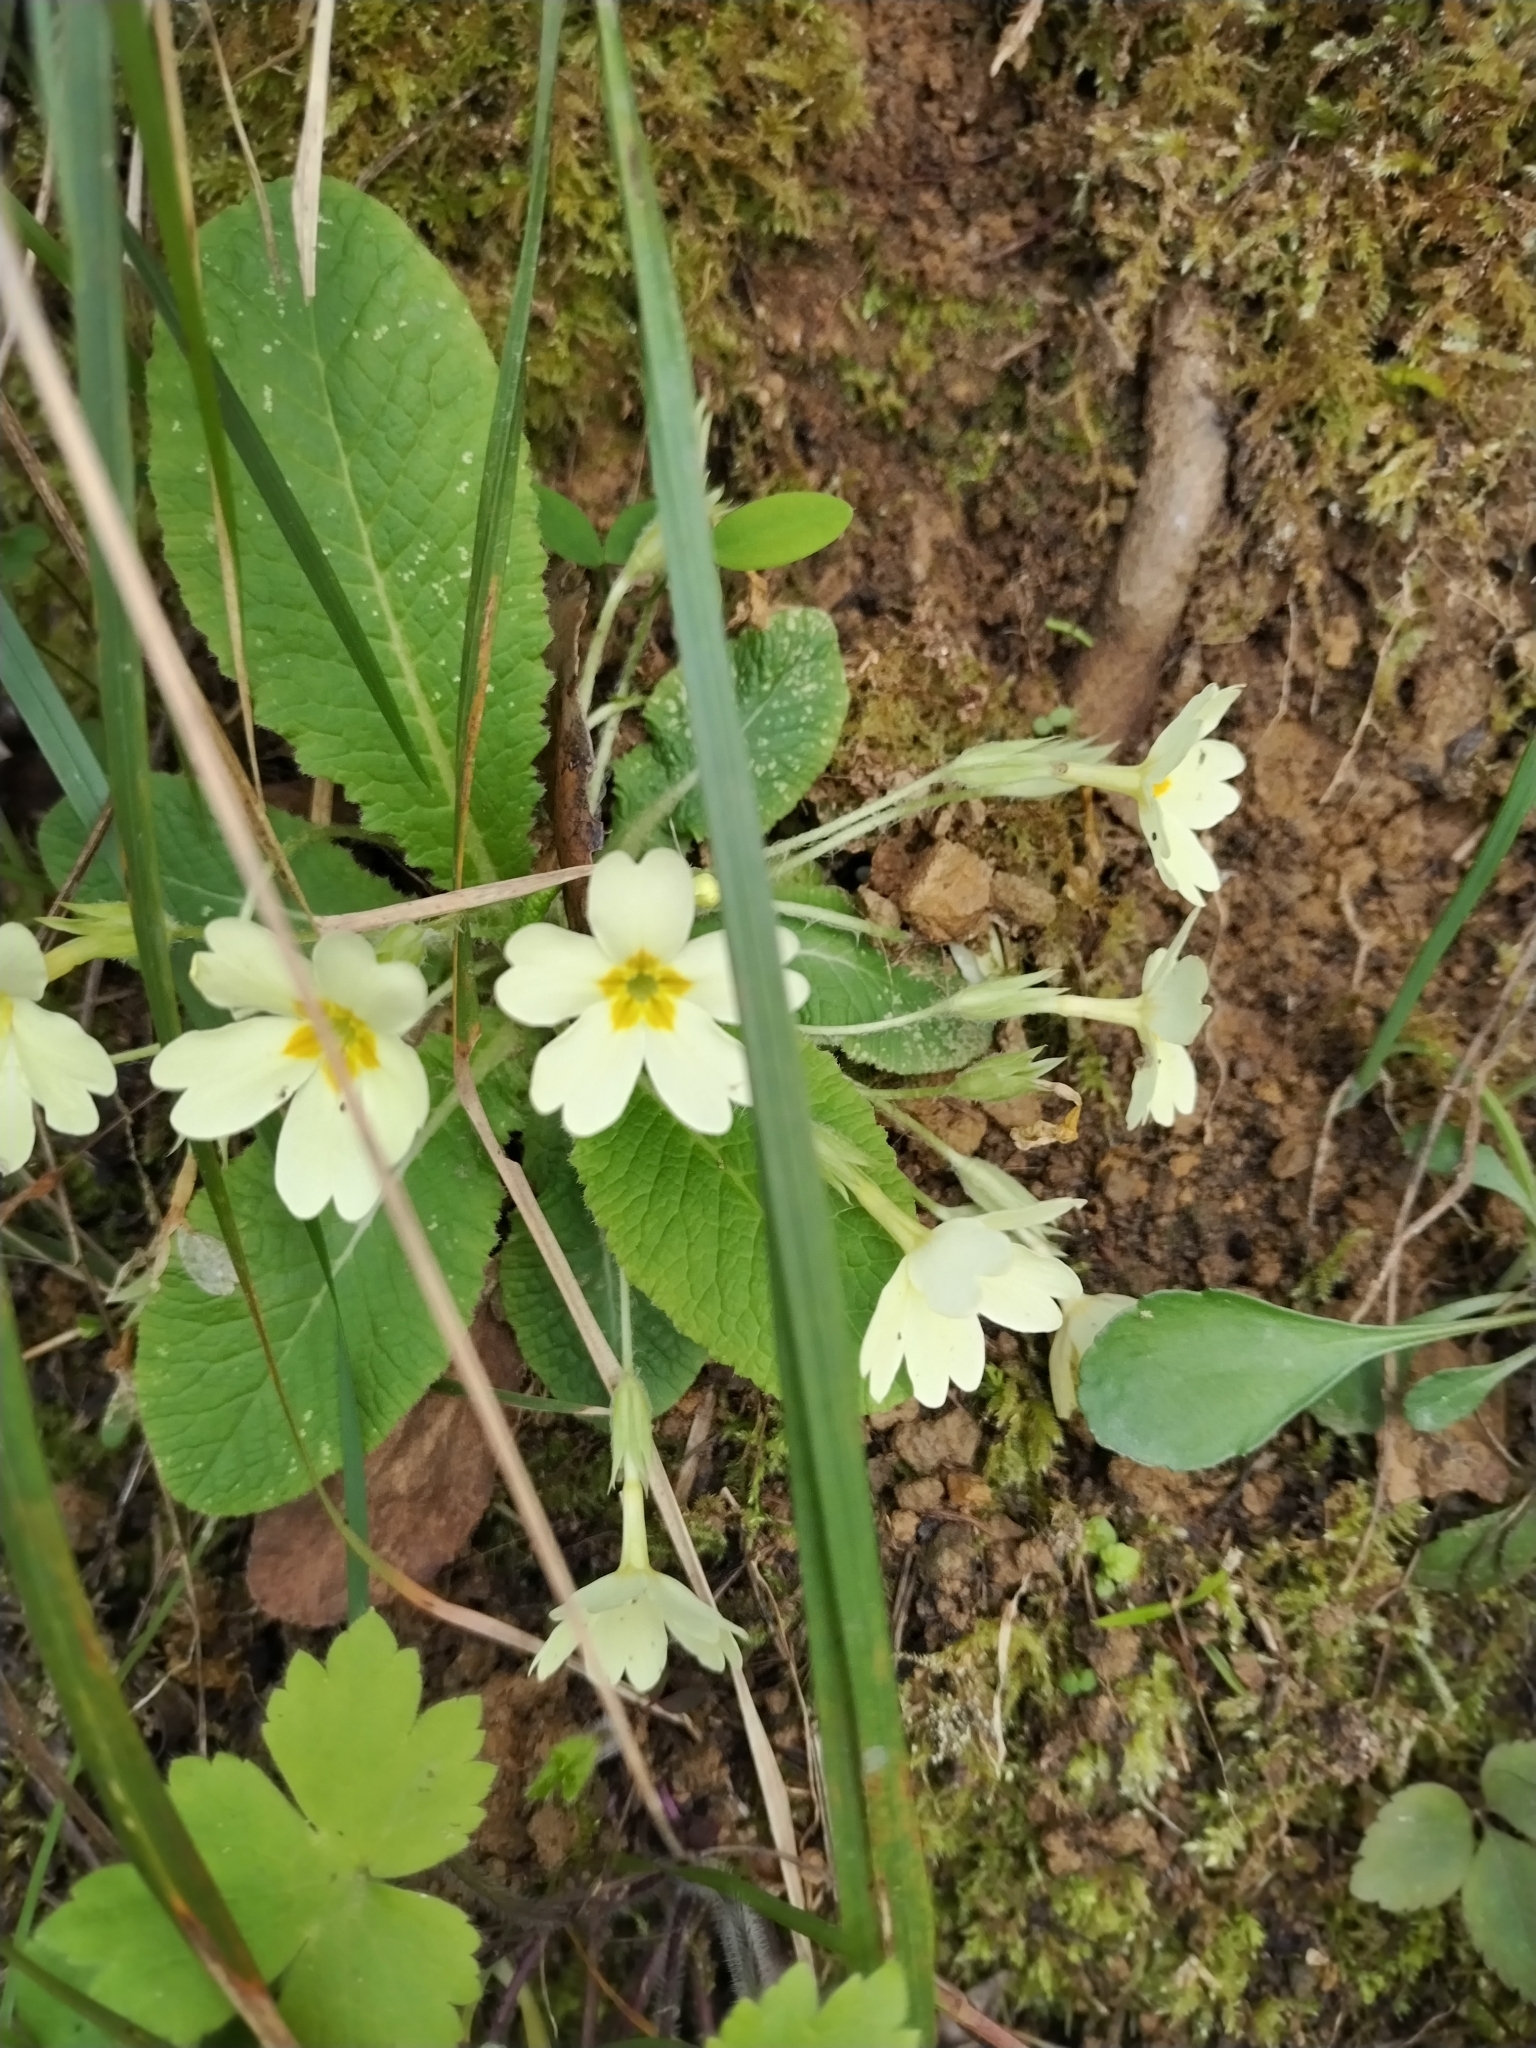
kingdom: Plantae
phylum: Tracheophyta
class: Magnoliopsida
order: Ericales
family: Primulaceae
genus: Primula
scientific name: Primula vulgaris
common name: Primrose
